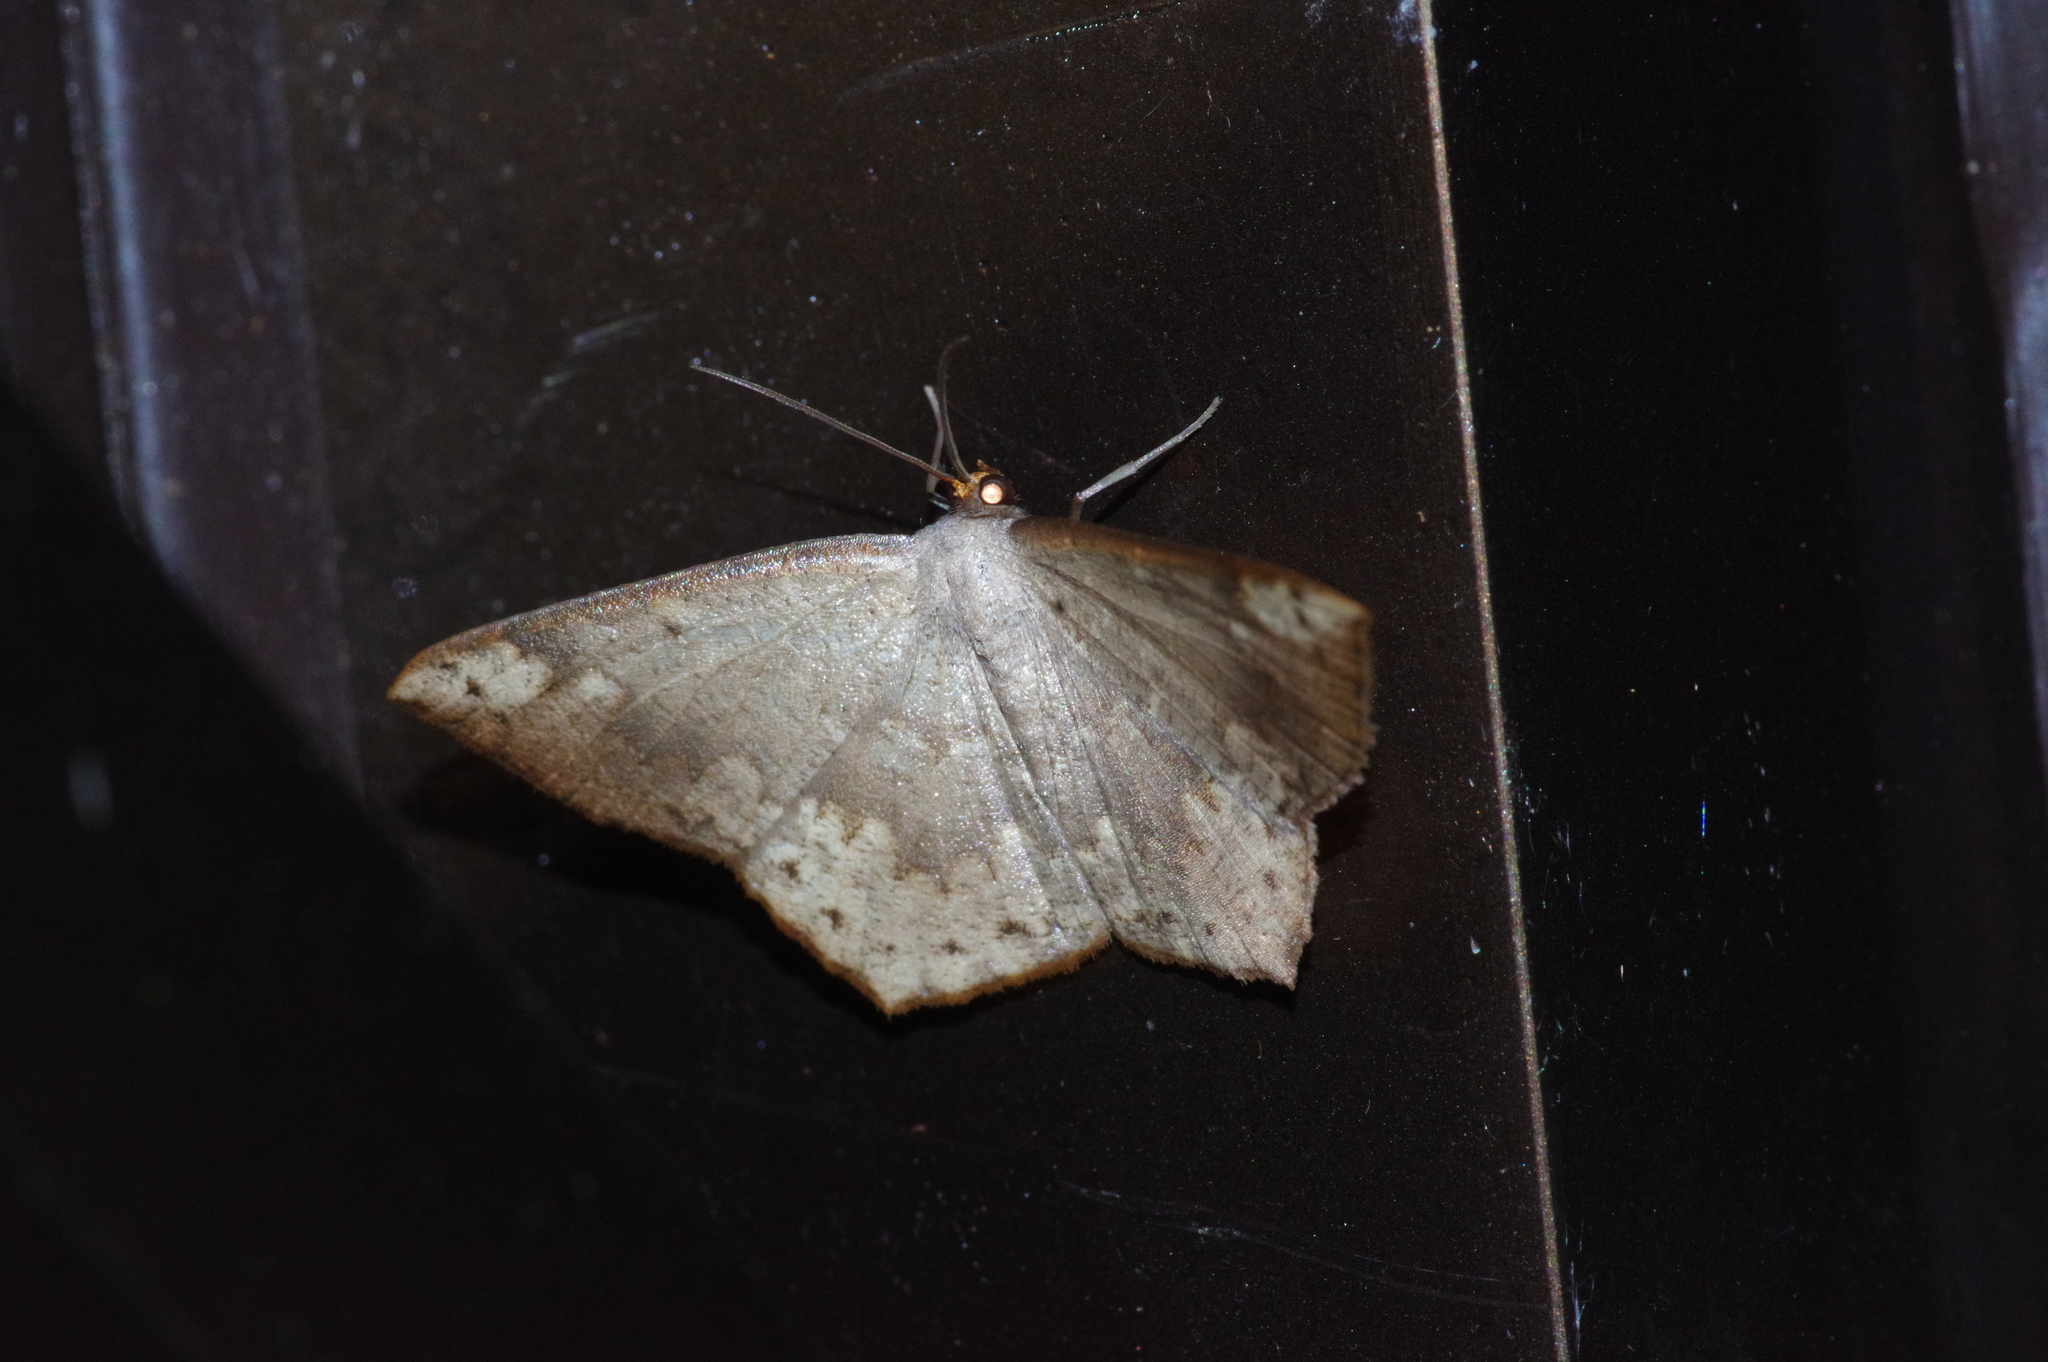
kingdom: Animalia
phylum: Arthropoda
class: Insecta
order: Lepidoptera
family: Geometridae
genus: Peratostega
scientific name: Peratostega deletaria
